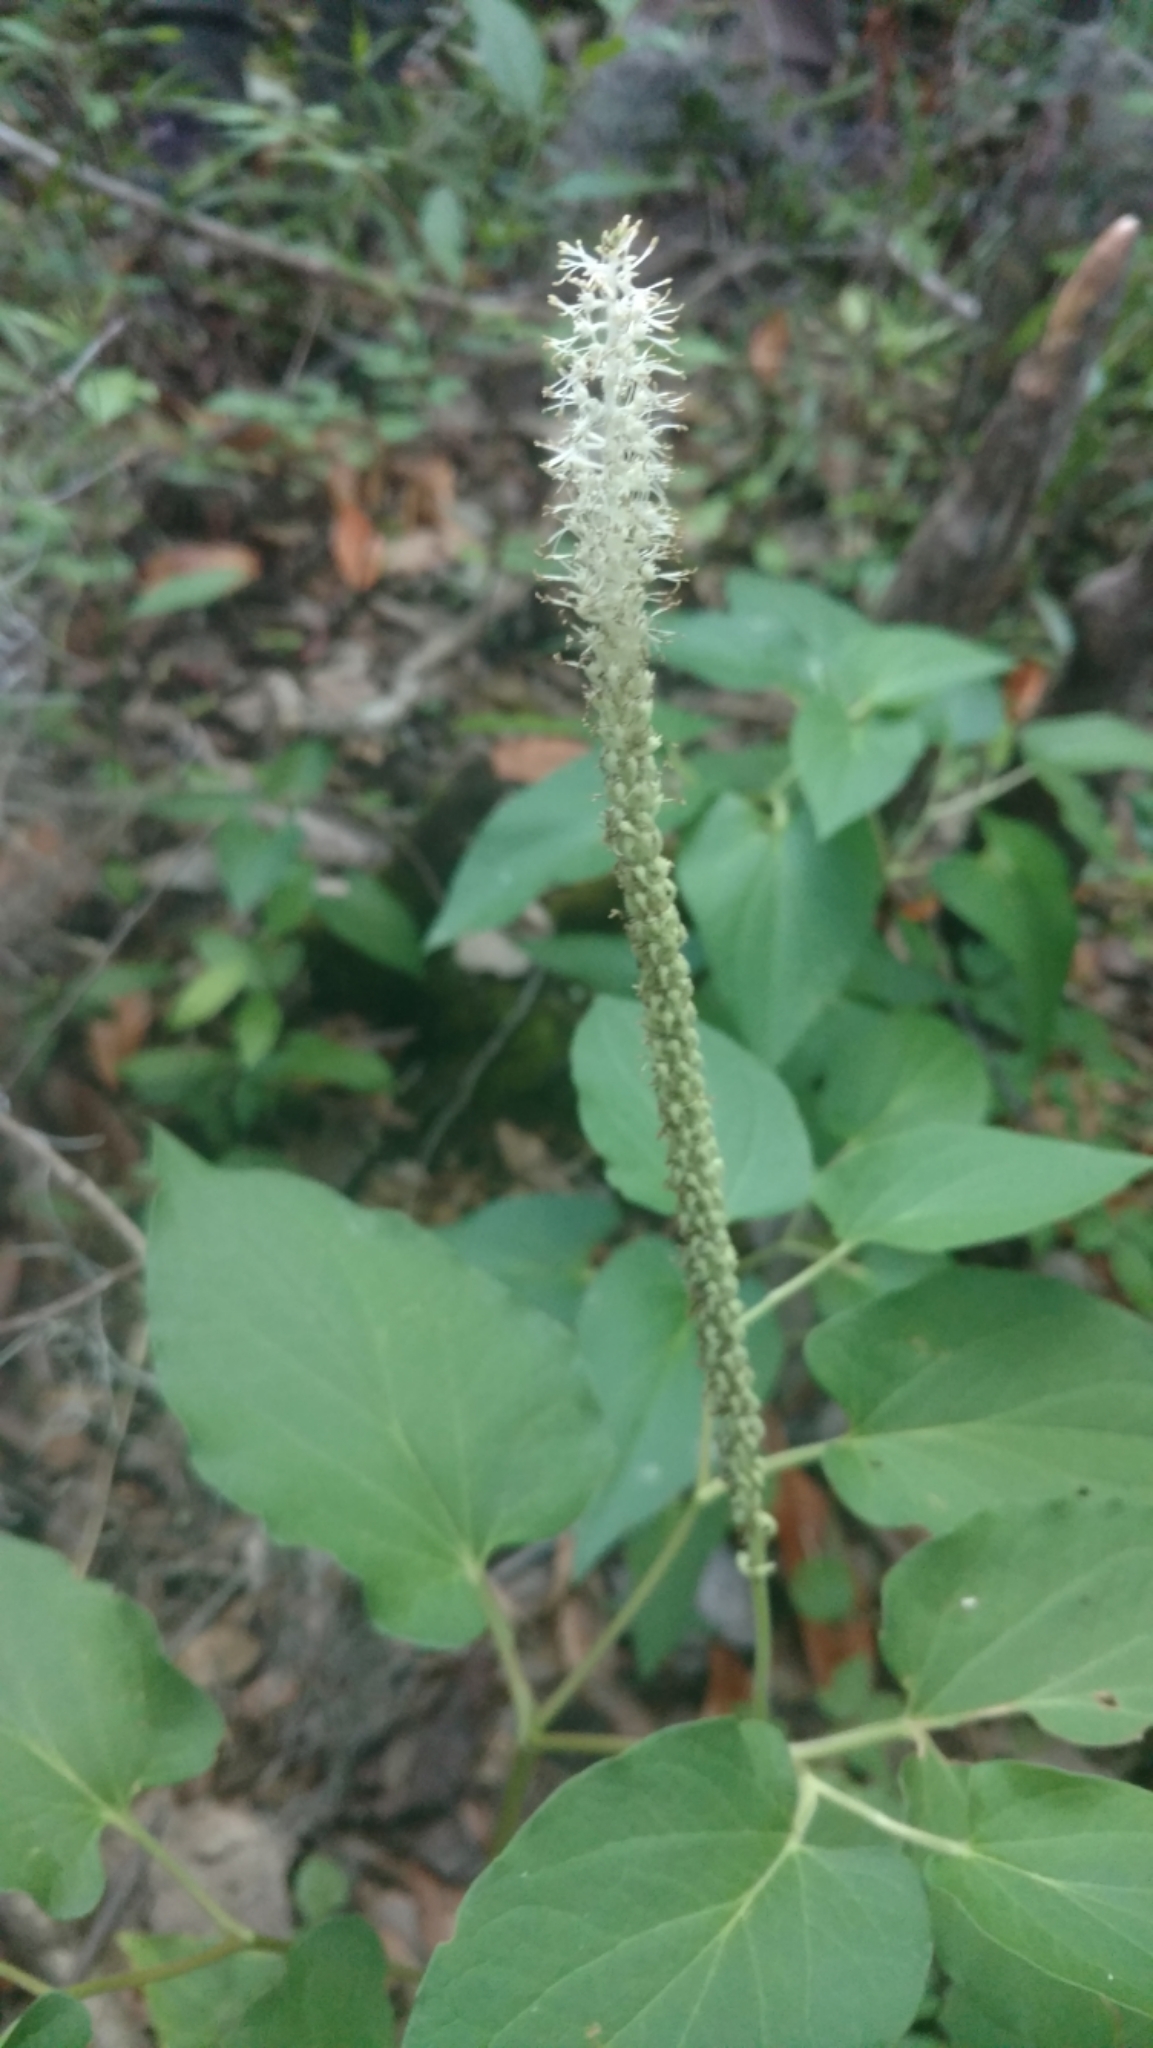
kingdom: Plantae
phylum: Tracheophyta
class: Magnoliopsida
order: Piperales
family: Saururaceae
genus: Saururus
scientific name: Saururus cernuus
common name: Lizard's-tail
